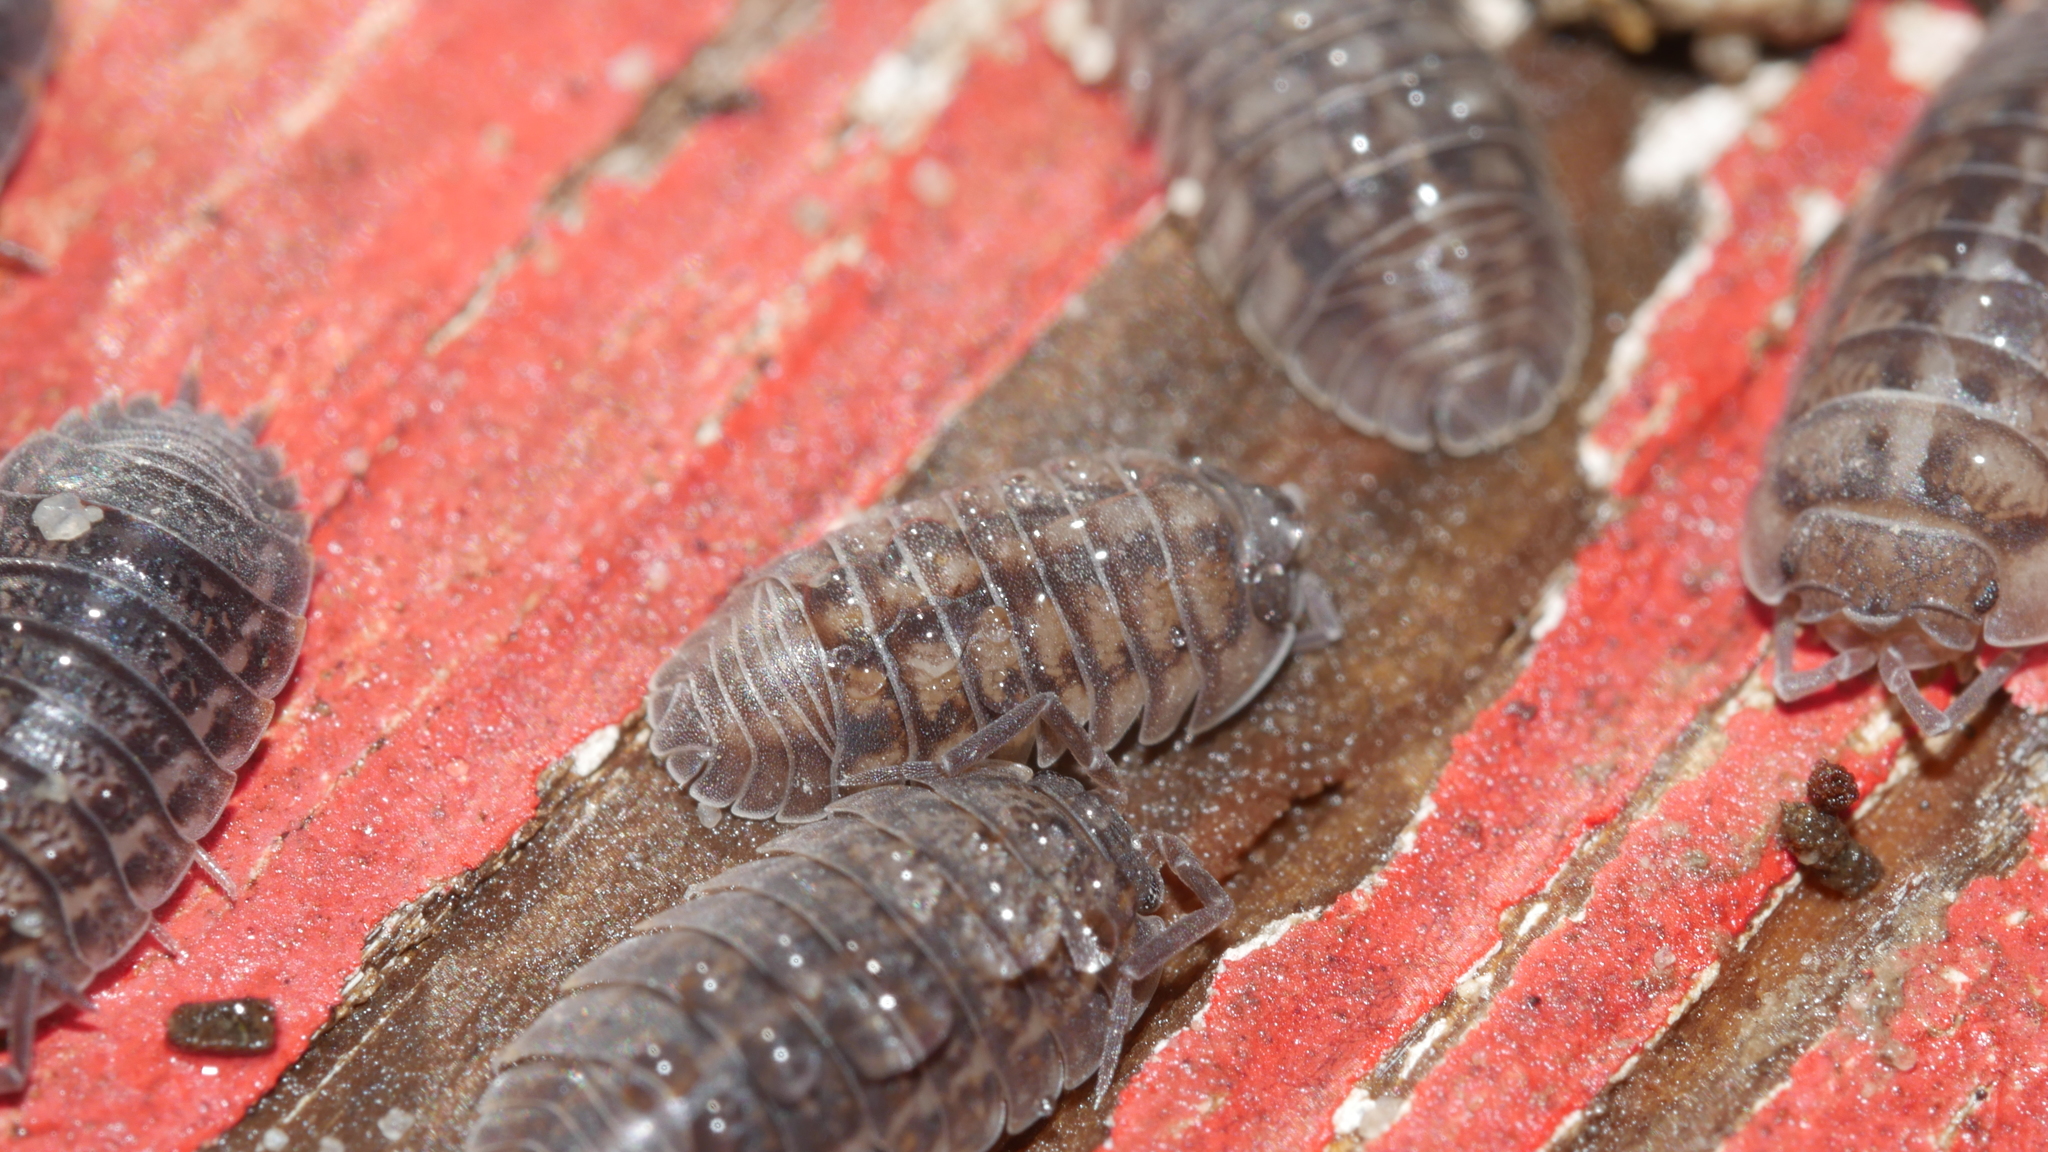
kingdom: Animalia
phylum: Arthropoda
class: Malacostraca
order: Isopoda
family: Armadillidiidae
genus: Armadillidium
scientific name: Armadillidium nasatum
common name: Isopod
